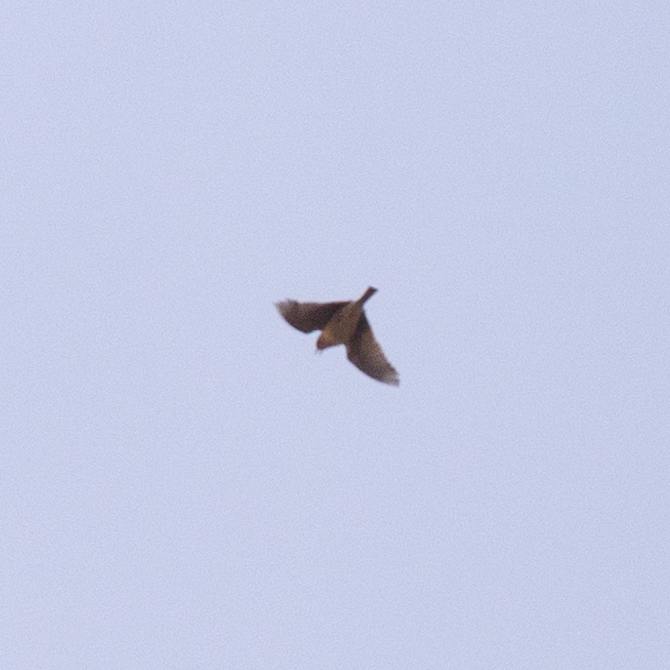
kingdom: Animalia
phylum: Chordata
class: Aves
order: Passeriformes
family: Alaudidae
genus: Alauda
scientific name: Alauda arvensis
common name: Eurasian skylark
